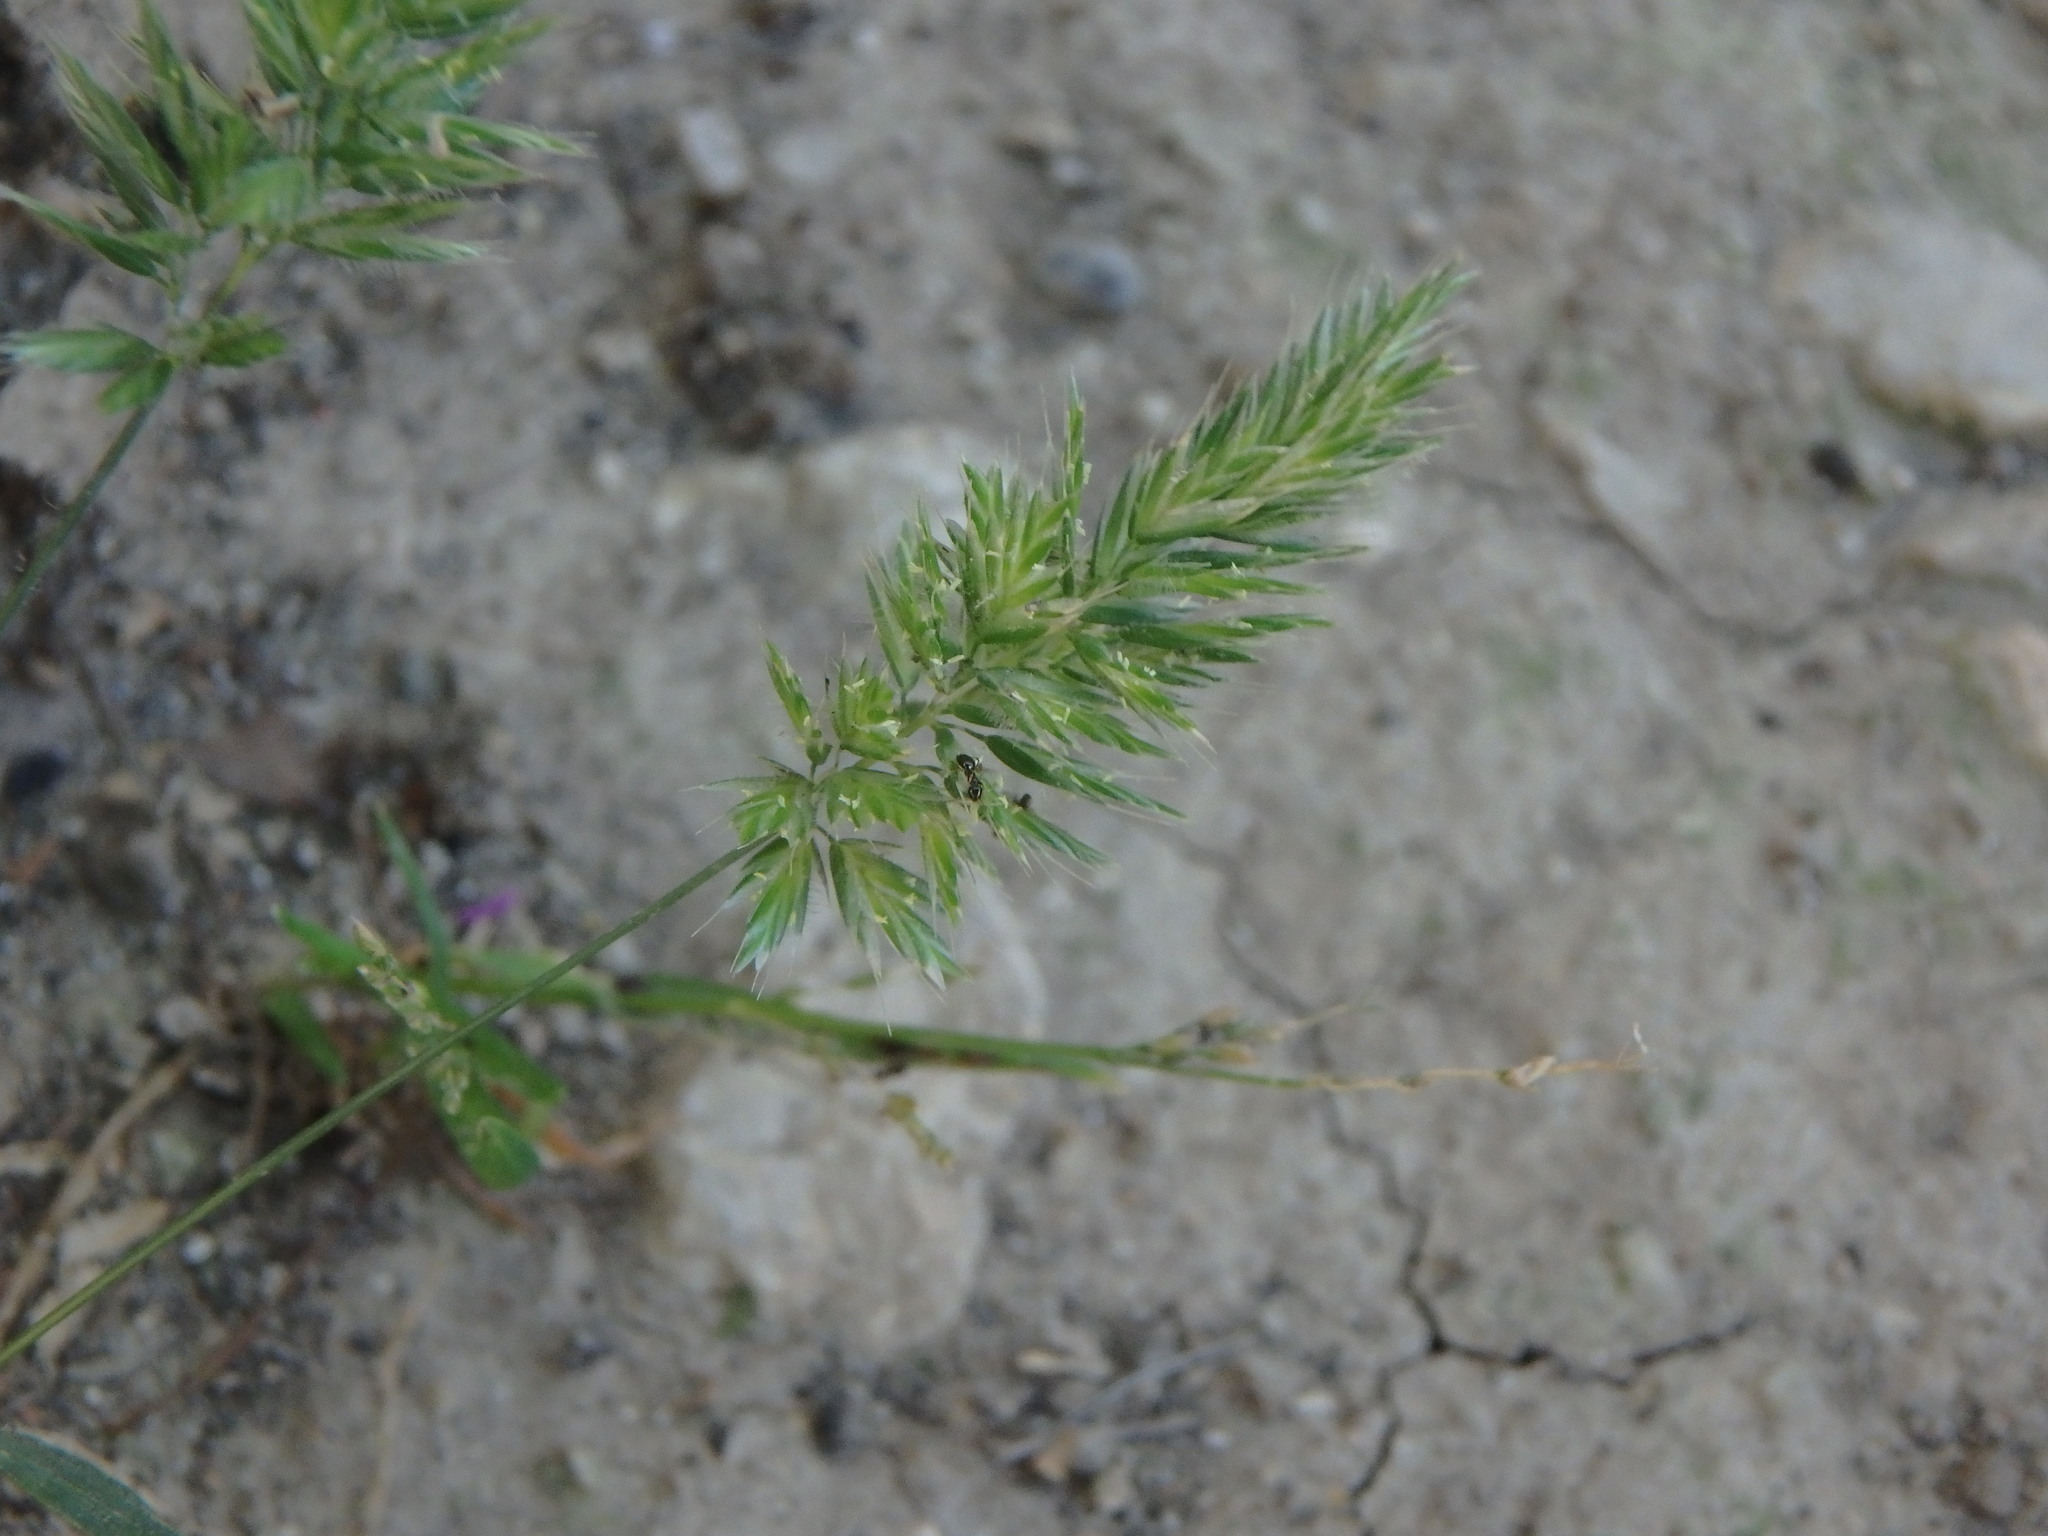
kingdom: Plantae
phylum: Tracheophyta
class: Liliopsida
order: Poales
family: Poaceae
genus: Rostraria
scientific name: Rostraria cristata
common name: Mediterranean hair-grass
